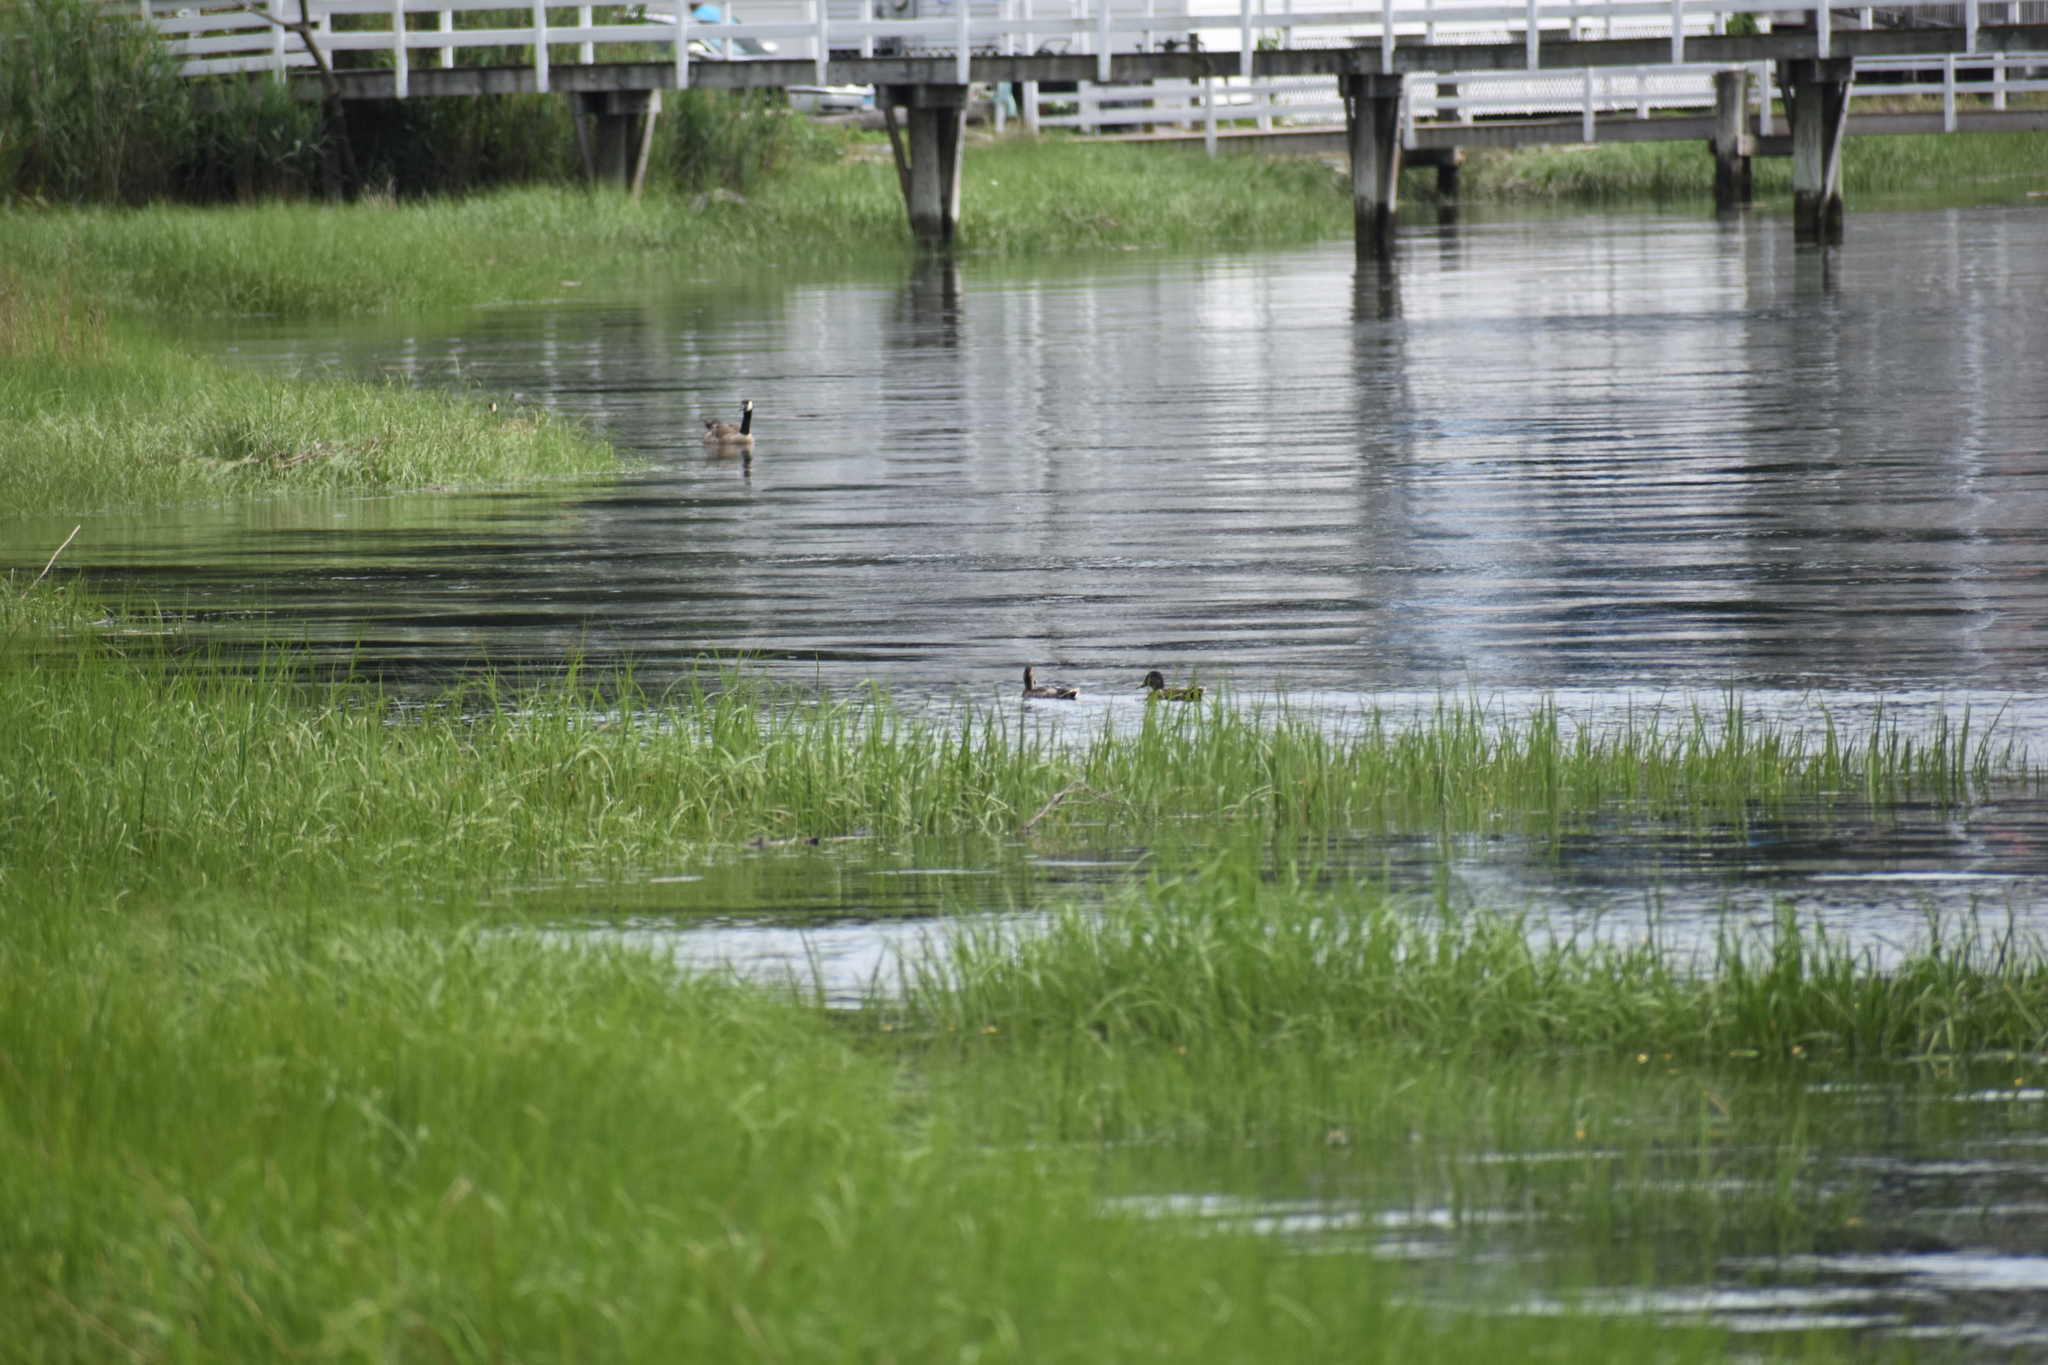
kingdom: Animalia
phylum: Chordata
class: Aves
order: Anseriformes
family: Anatidae
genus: Anas
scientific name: Anas platyrhynchos
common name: Mallard
